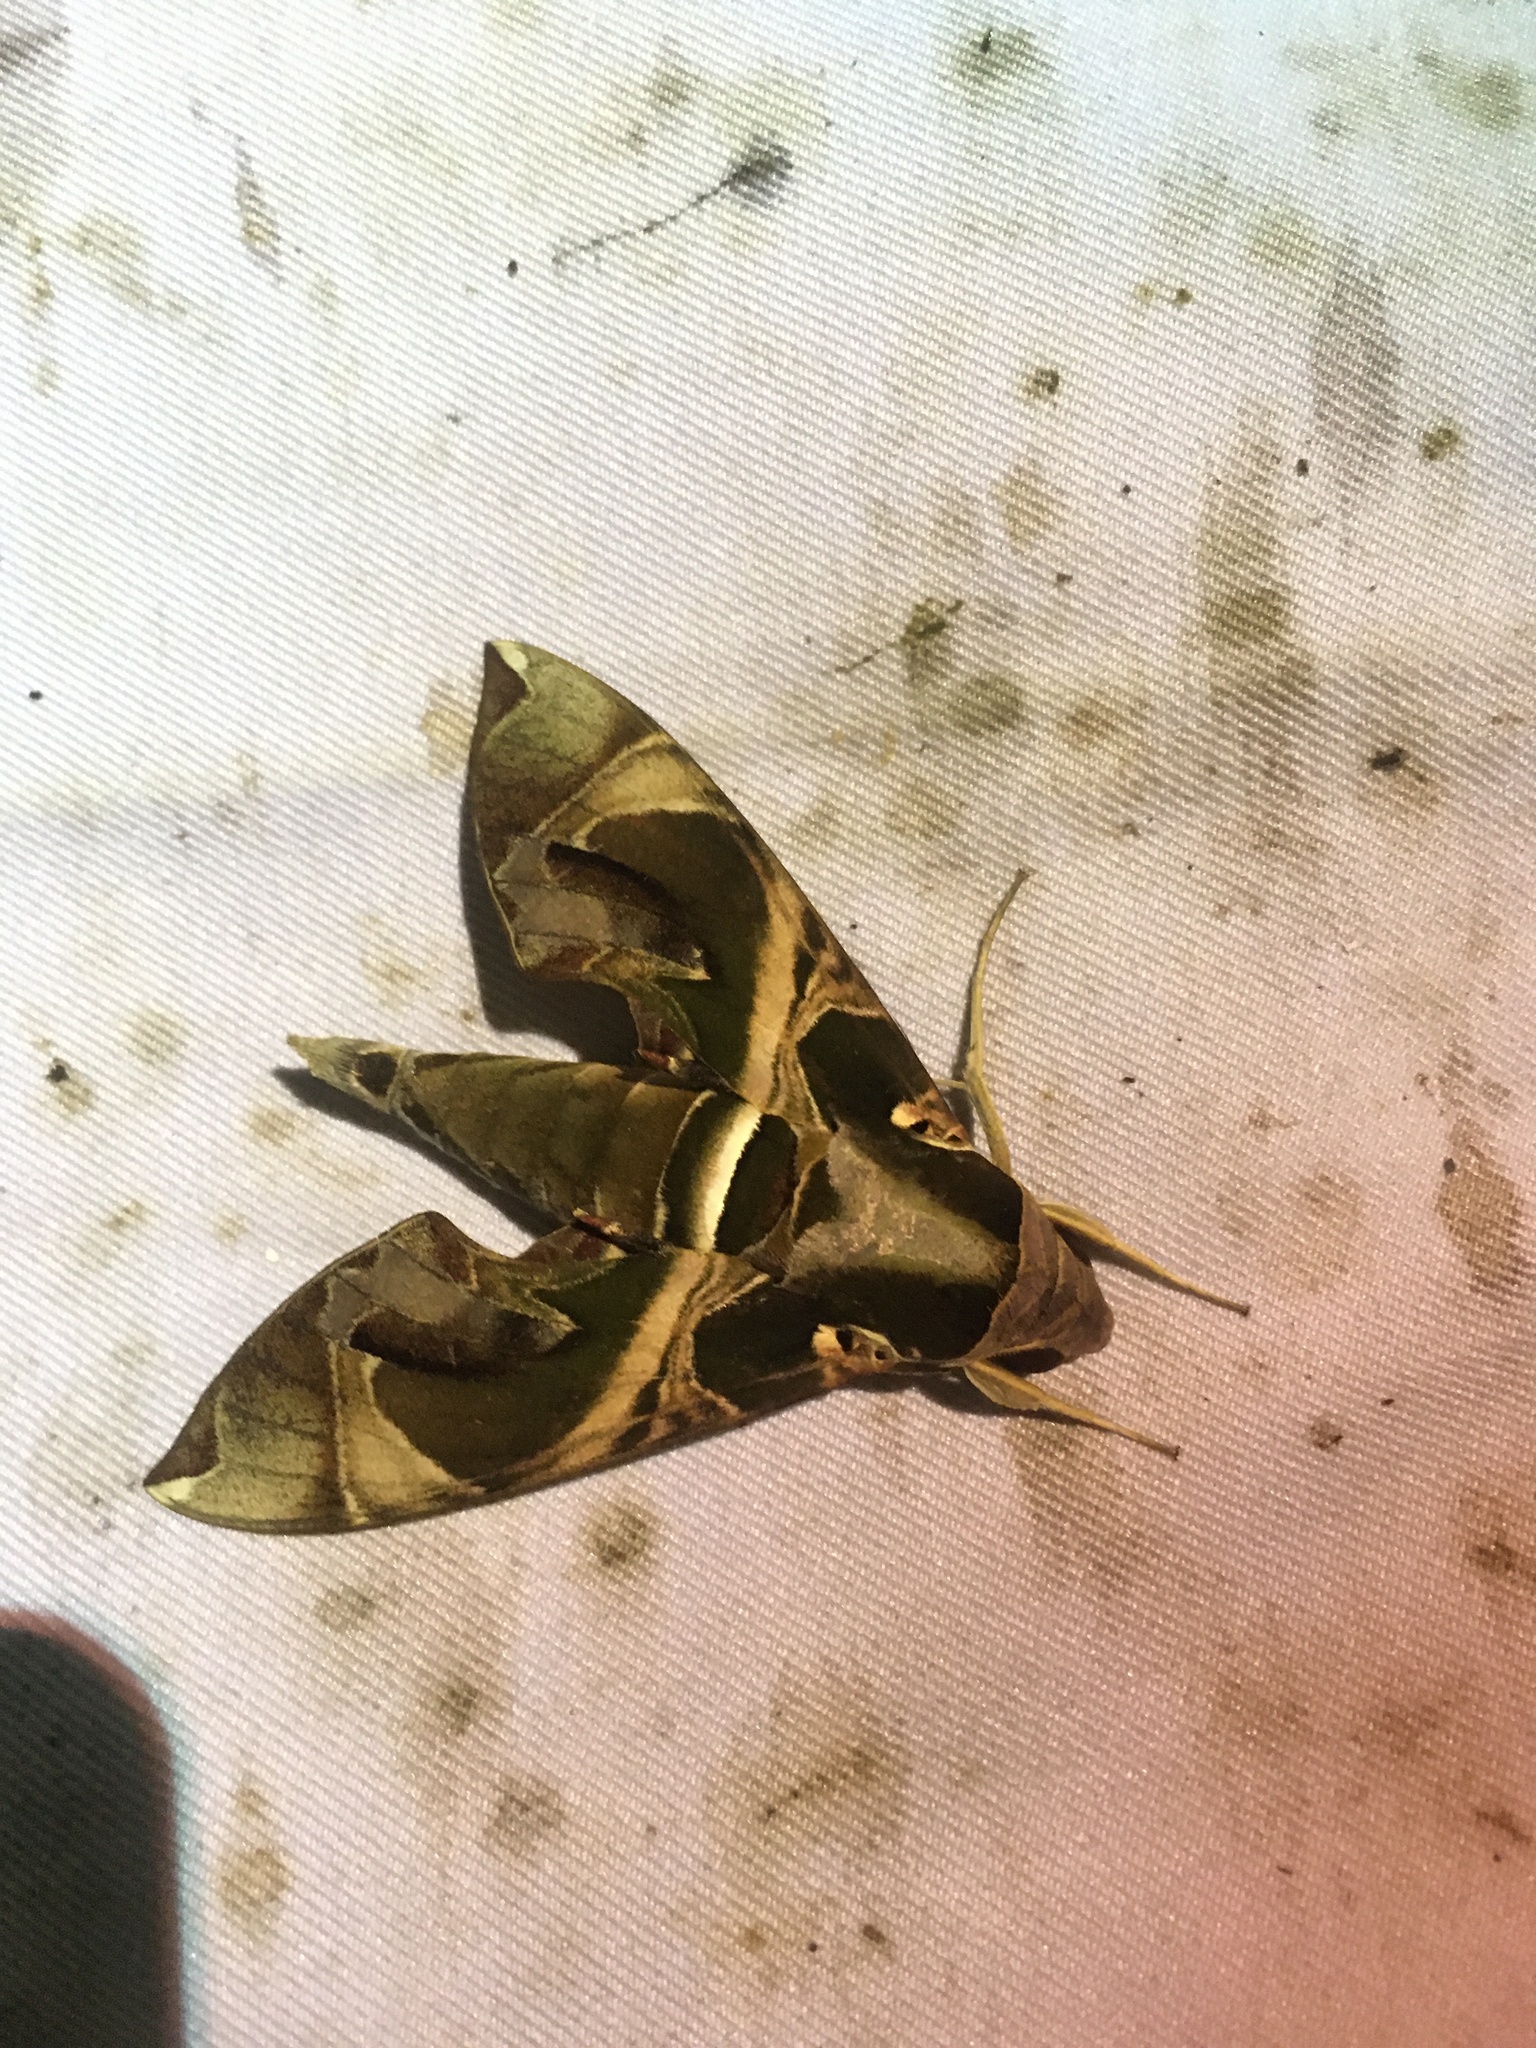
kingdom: Animalia
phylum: Arthropoda
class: Insecta
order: Lepidoptera
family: Sphingidae
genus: Daphnis
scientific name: Daphnis hypothous
